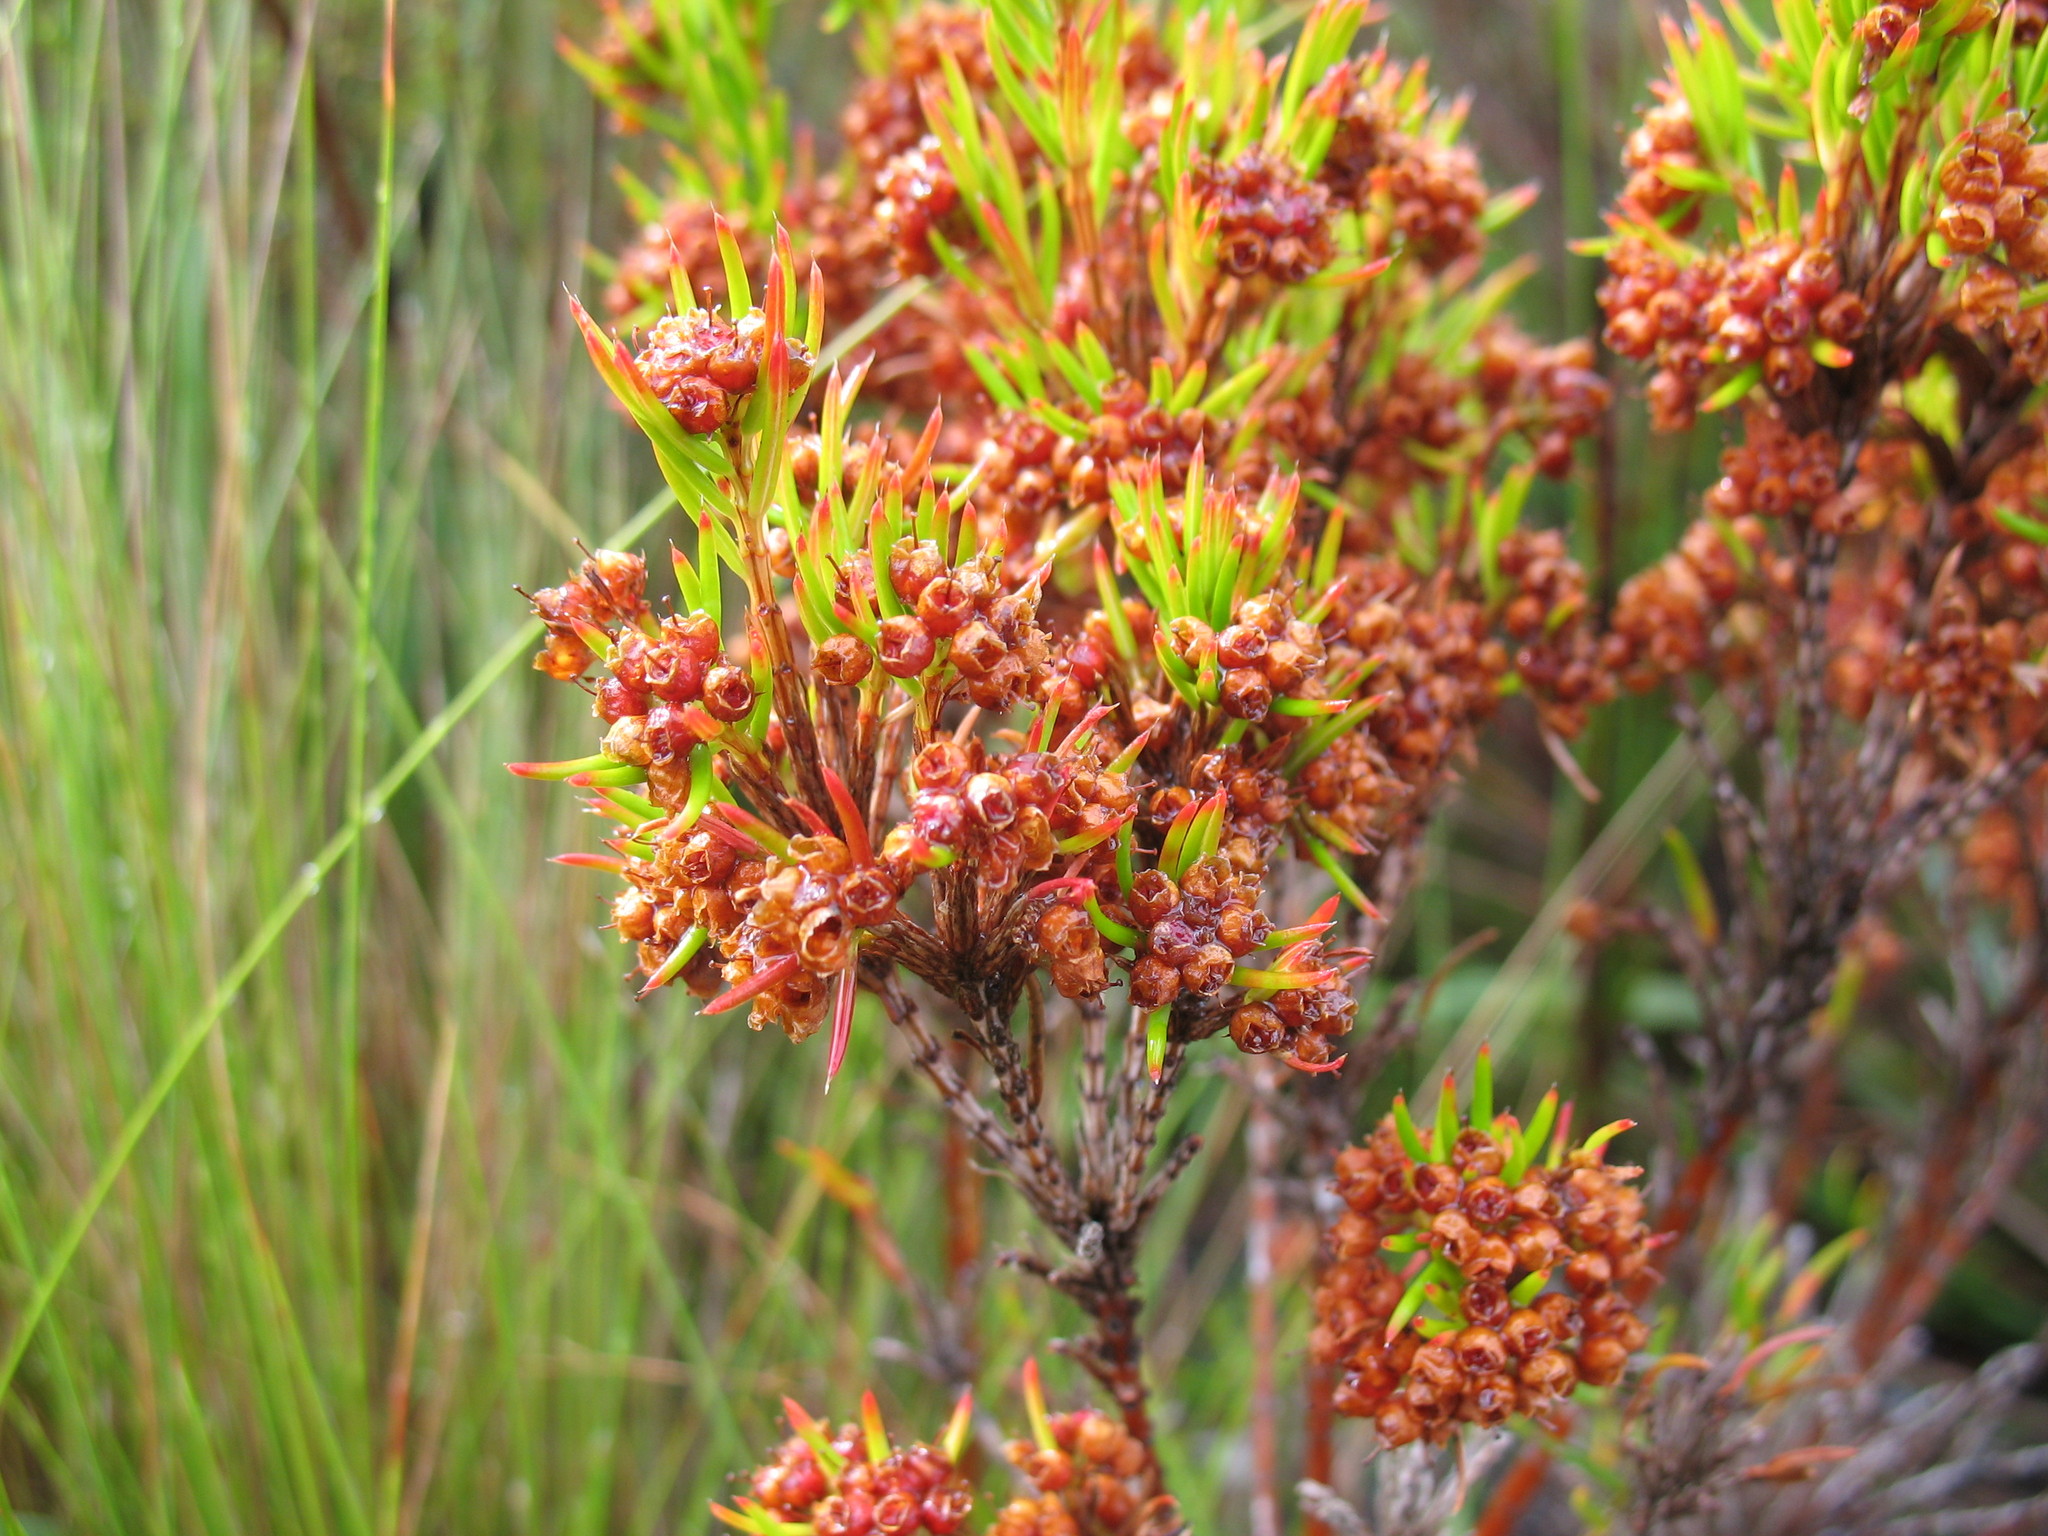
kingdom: Plantae
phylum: Tracheophyta
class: Magnoliopsida
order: Ericales
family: Ericaceae
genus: Erica
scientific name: Erica conferta
